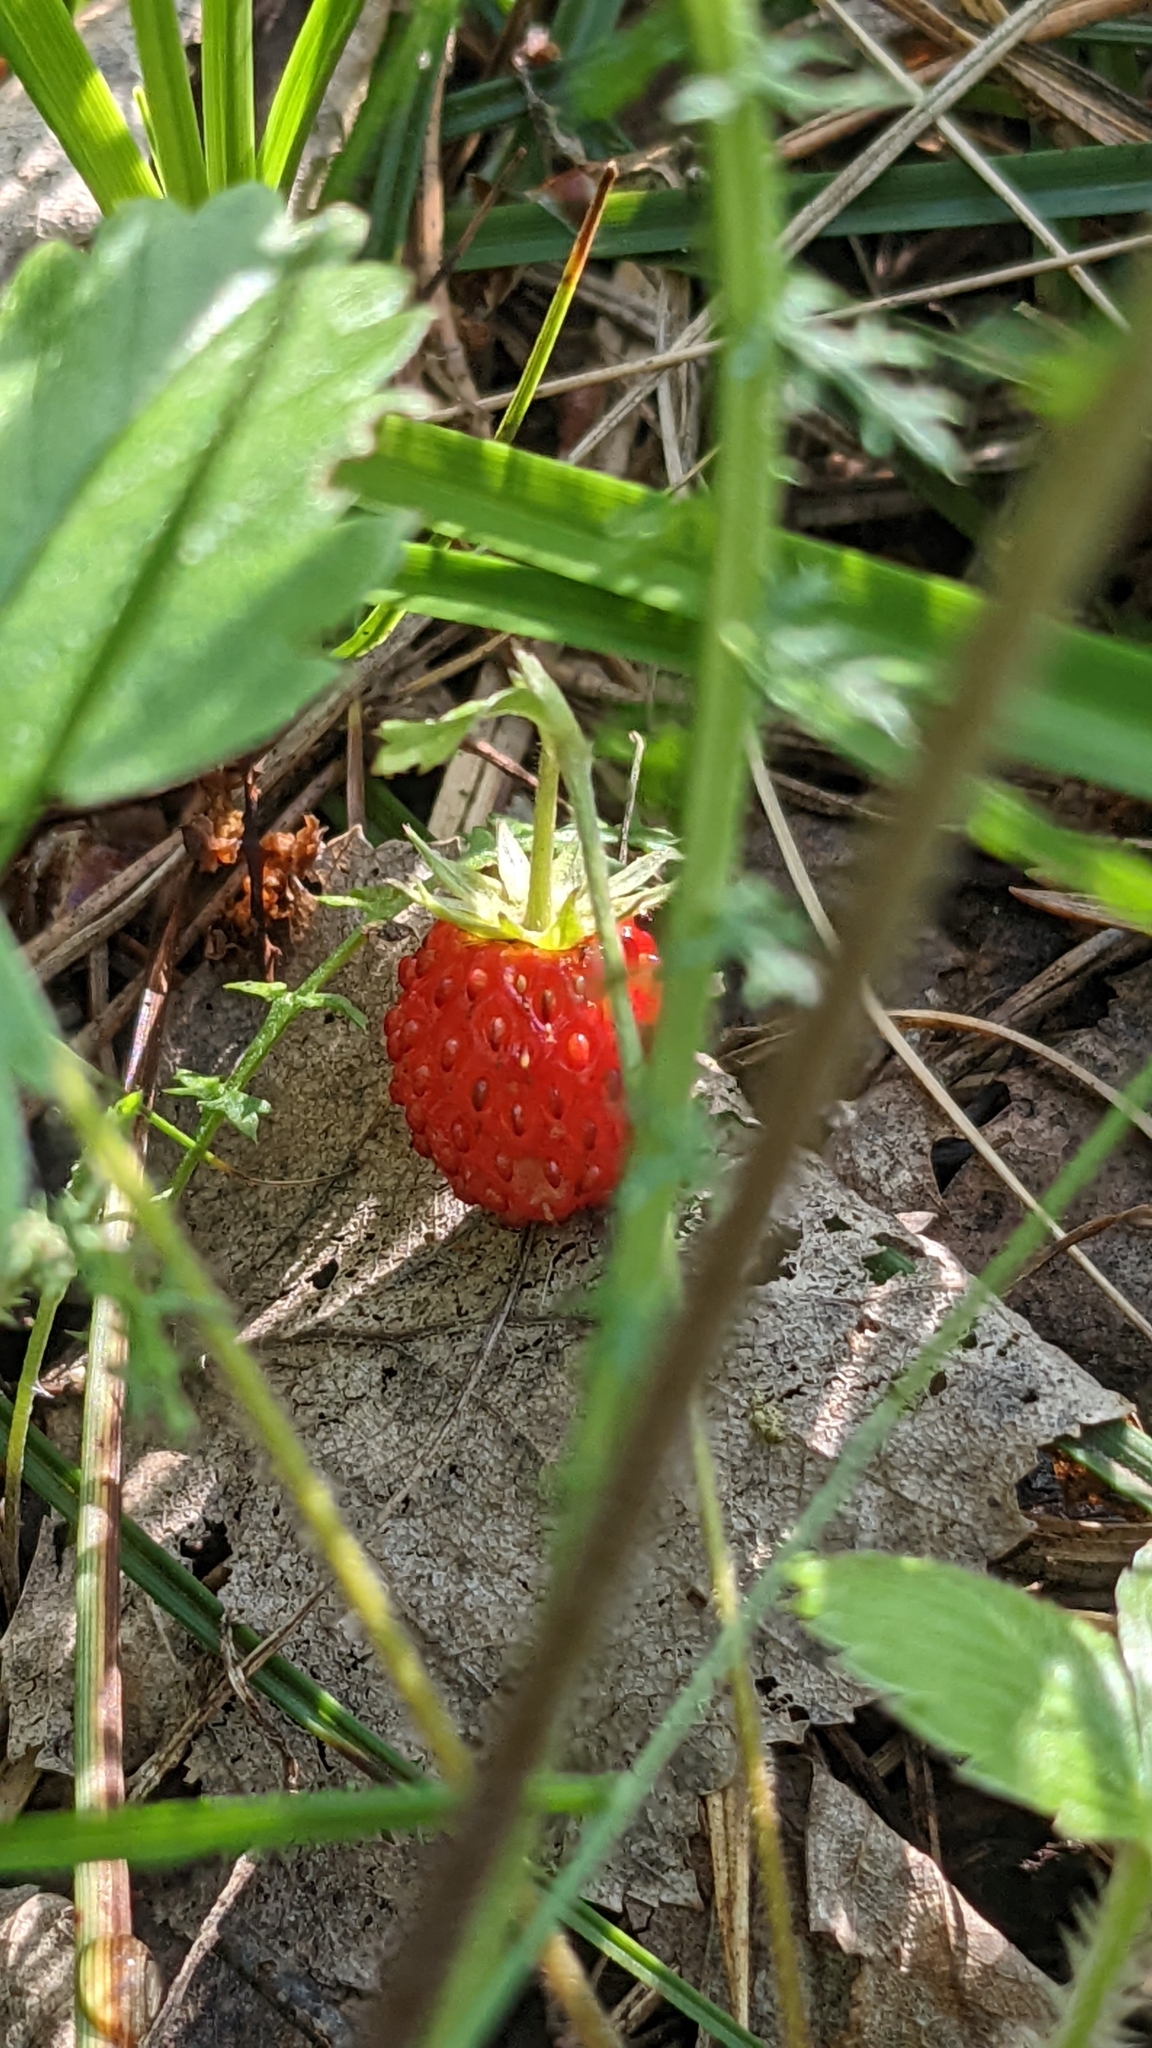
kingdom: Plantae
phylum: Tracheophyta
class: Magnoliopsida
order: Rosales
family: Rosaceae
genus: Fragaria
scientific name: Fragaria vesca
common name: Wild strawberry
